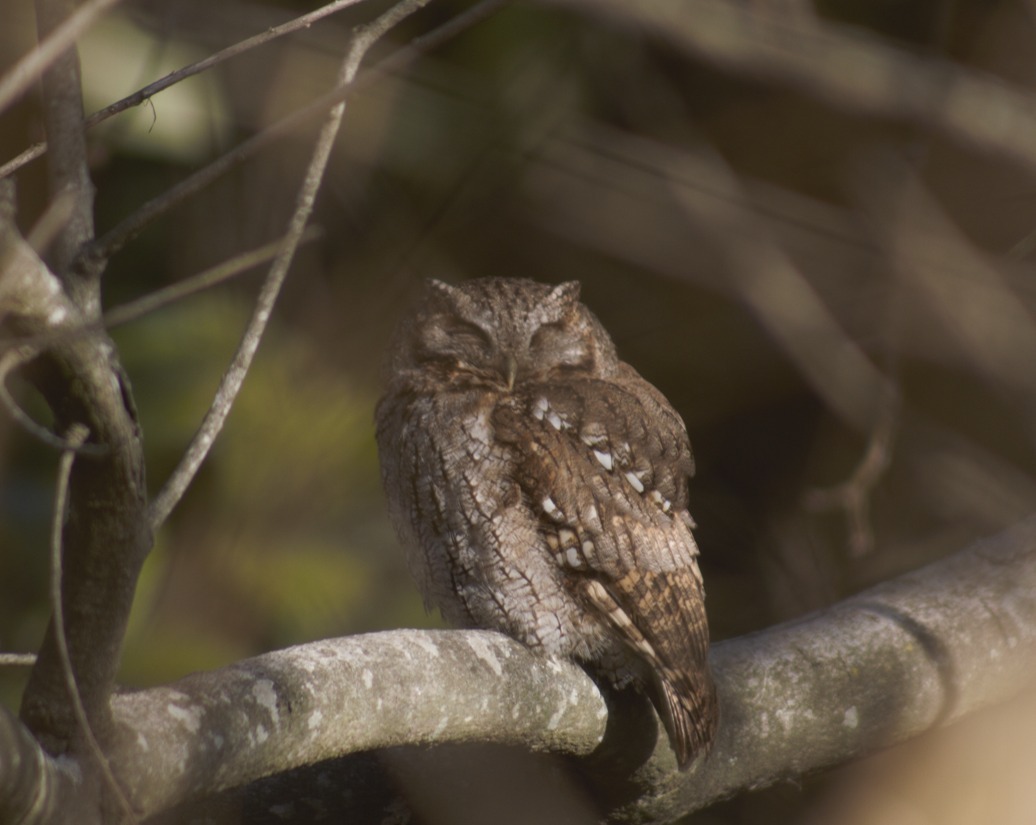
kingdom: Animalia
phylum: Chordata
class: Aves
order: Strigiformes
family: Strigidae
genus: Megascops
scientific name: Megascops choliba
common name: Tropical screech-owl
